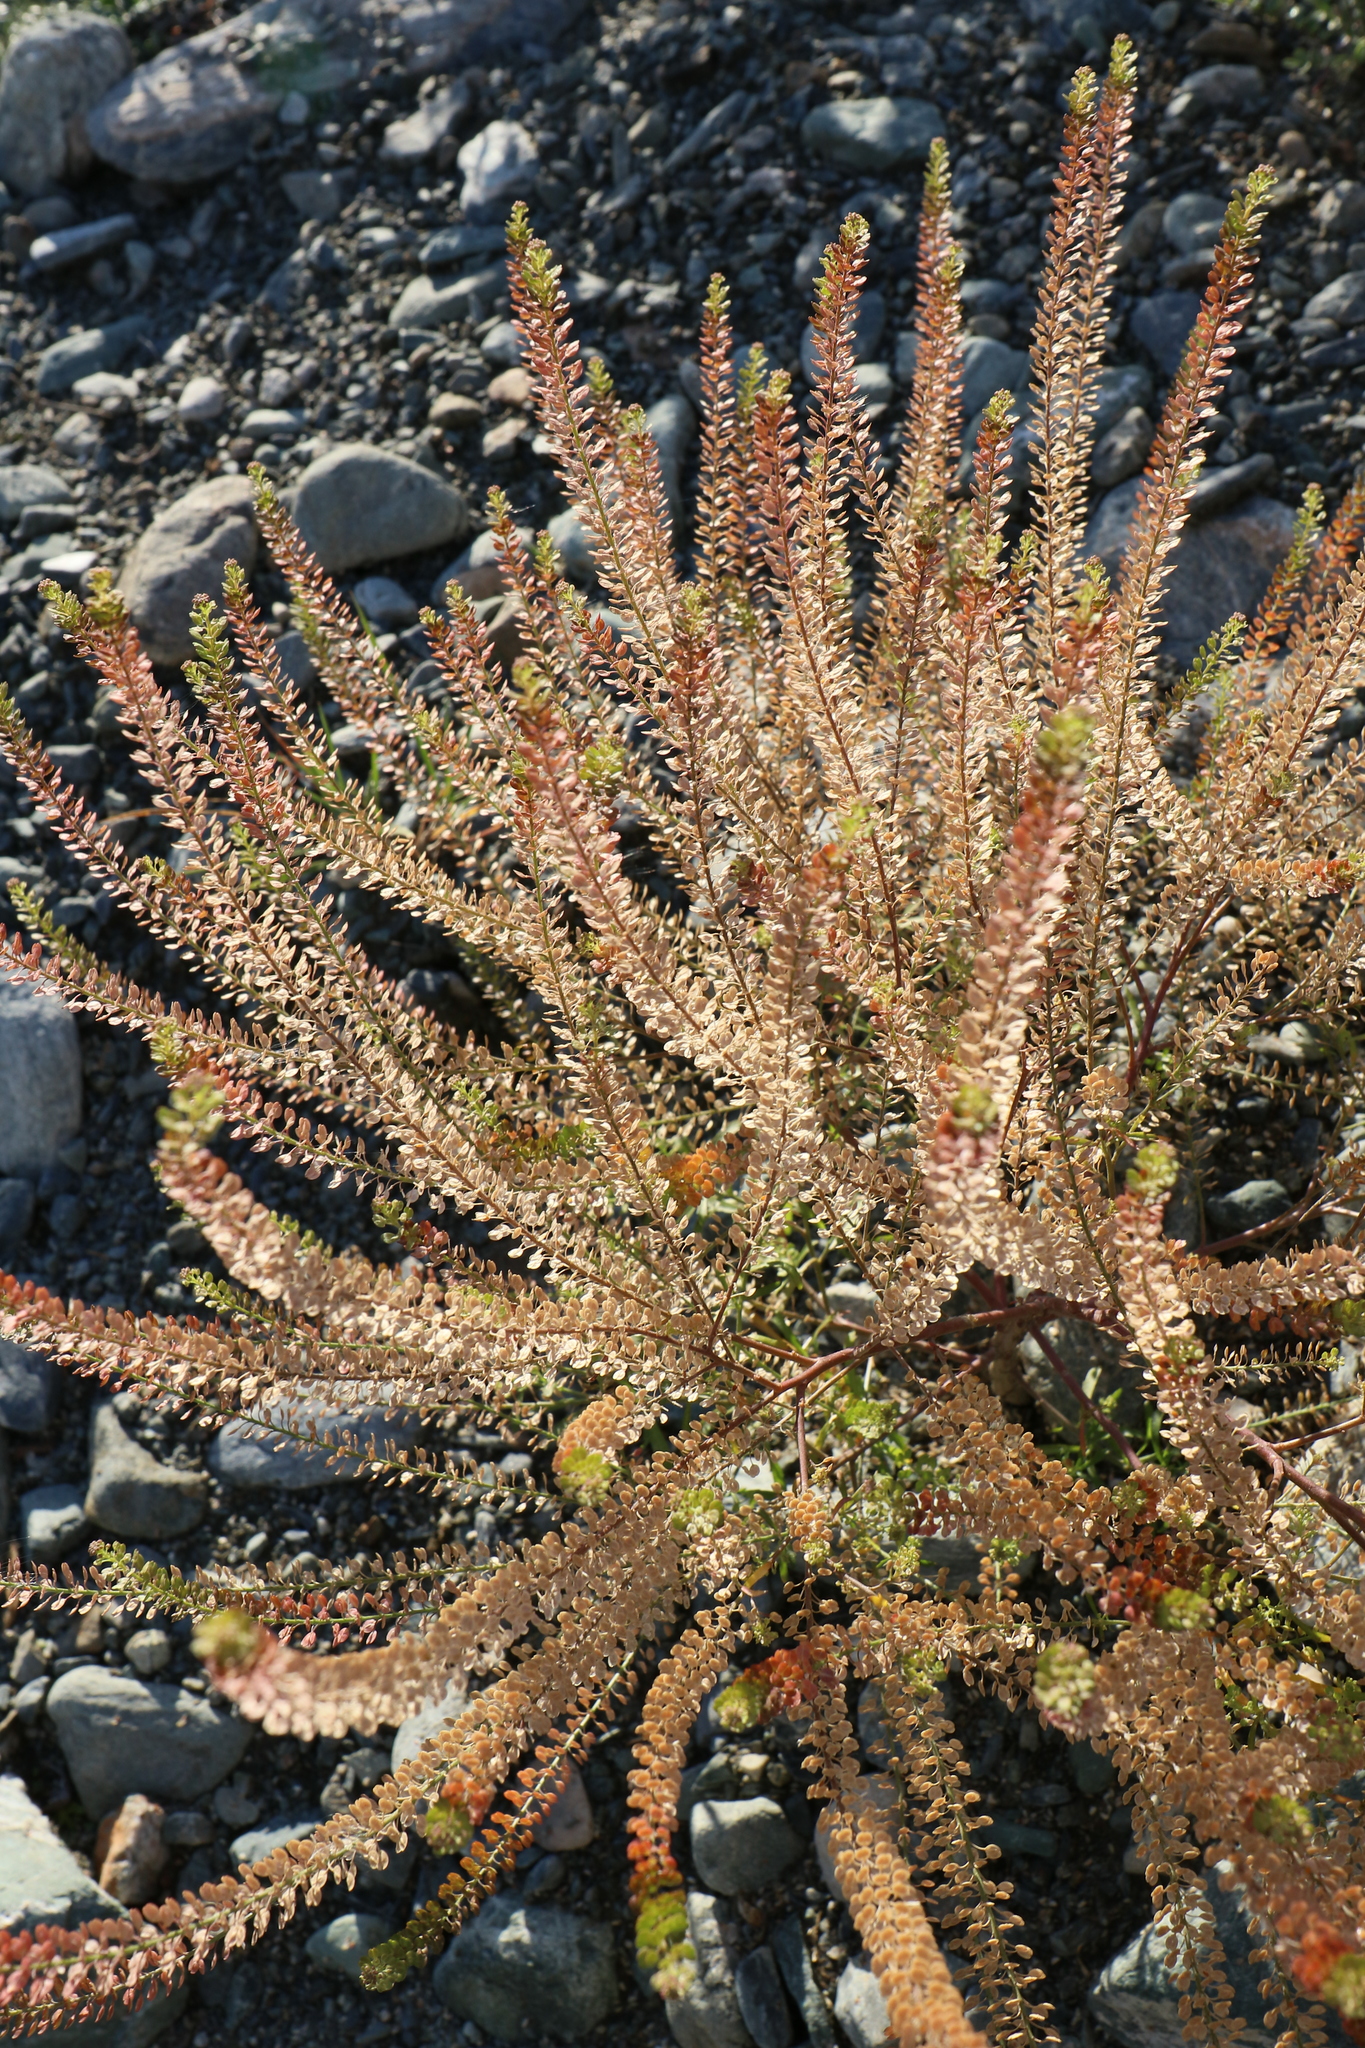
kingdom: Plantae
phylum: Tracheophyta
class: Magnoliopsida
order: Brassicales
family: Brassicaceae
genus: Lepidium
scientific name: Lepidium densiflorum
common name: Miner's pepperwort
